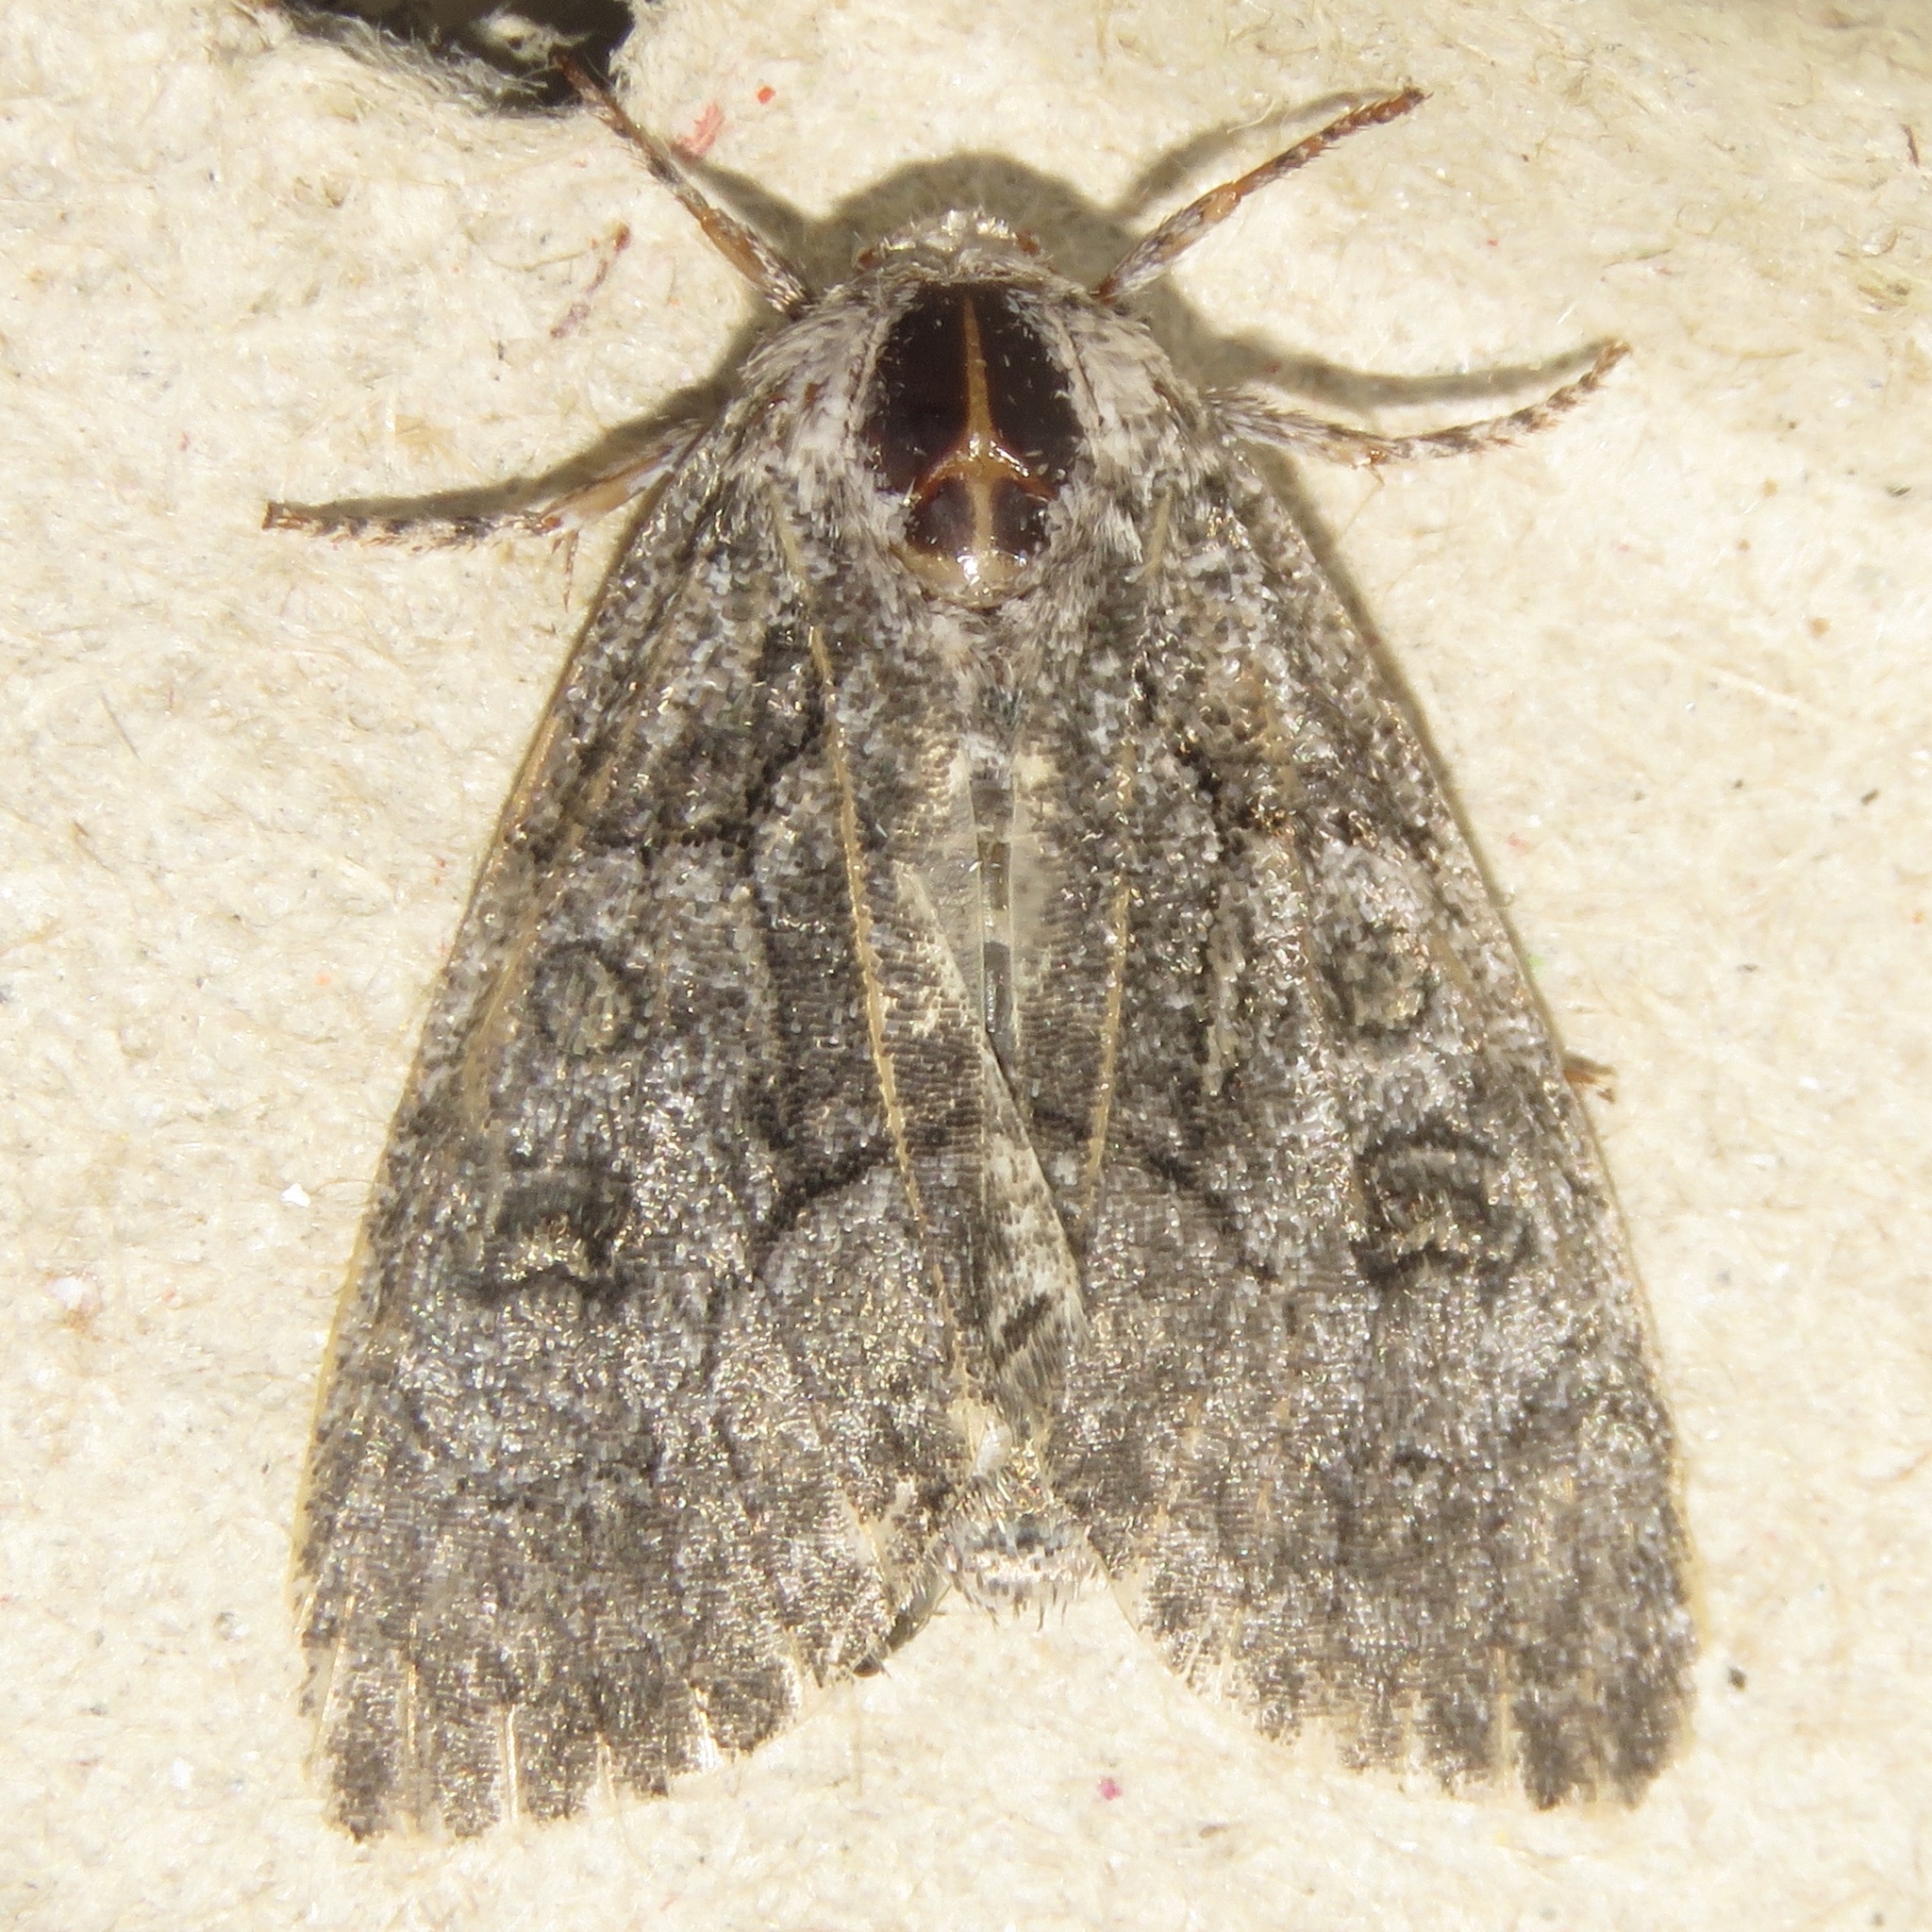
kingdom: Animalia
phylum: Arthropoda
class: Insecta
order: Lepidoptera
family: Noctuidae
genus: Raphia
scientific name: Raphia frater
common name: Brother
